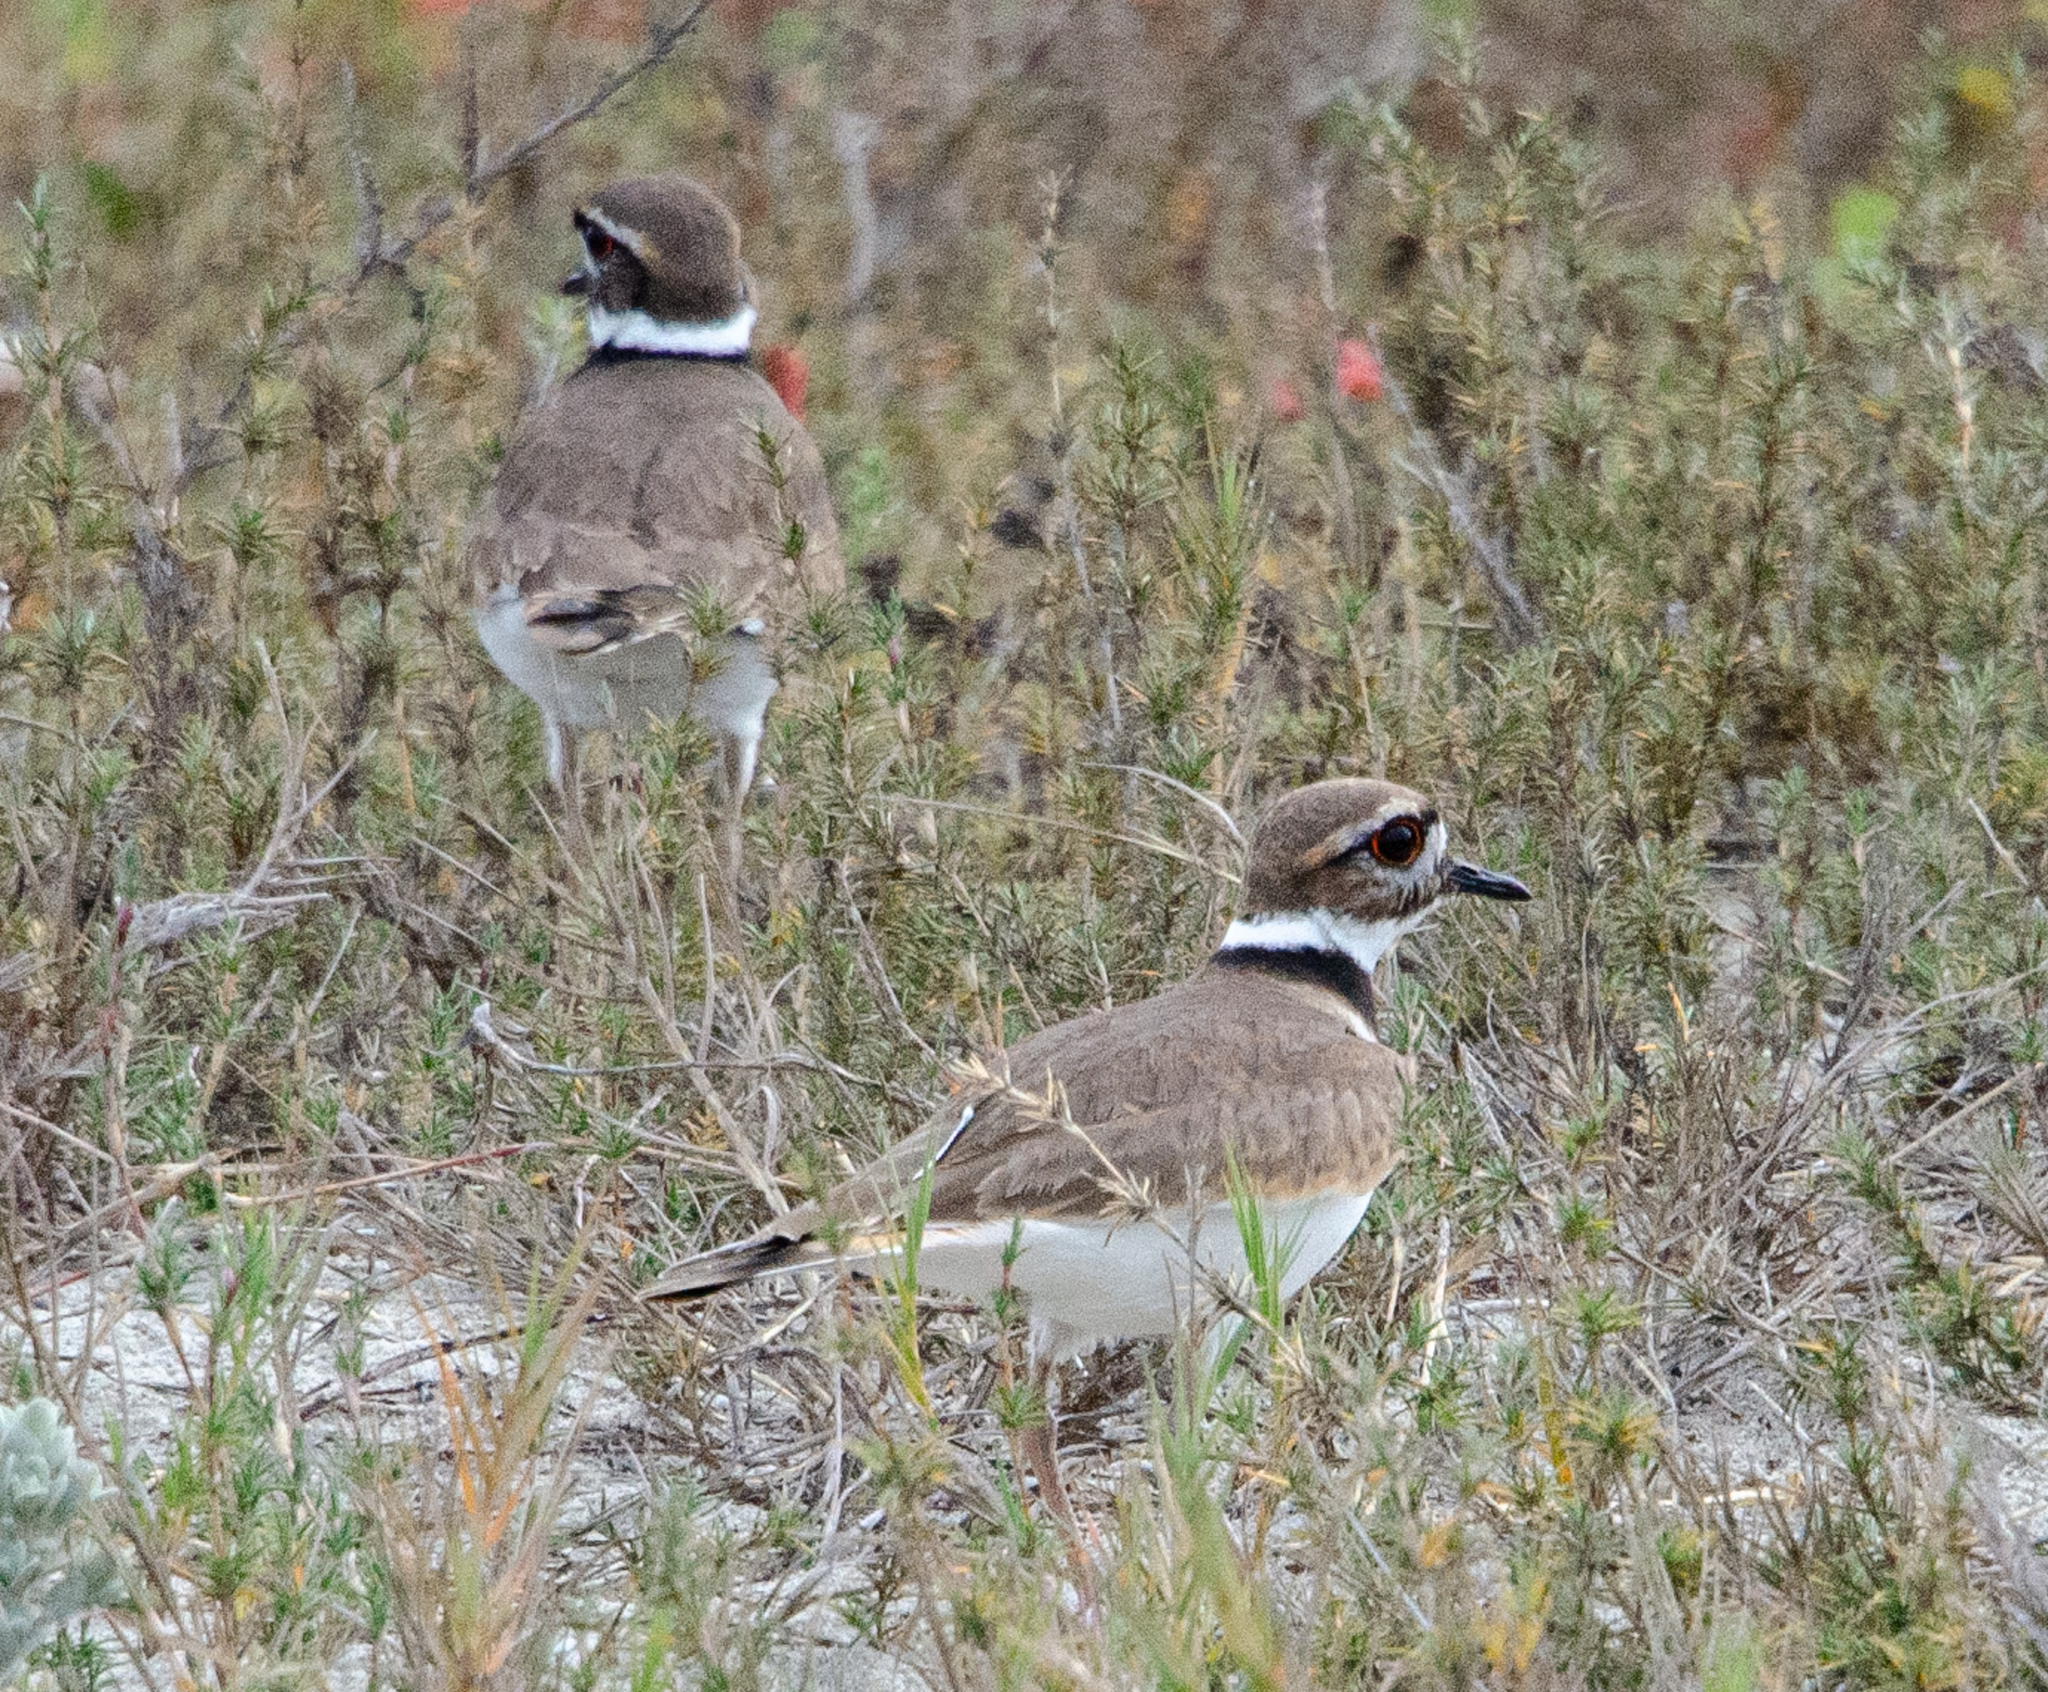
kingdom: Animalia
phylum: Chordata
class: Aves
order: Charadriiformes
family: Charadriidae
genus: Charadrius
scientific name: Charadrius vociferus
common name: Killdeer
